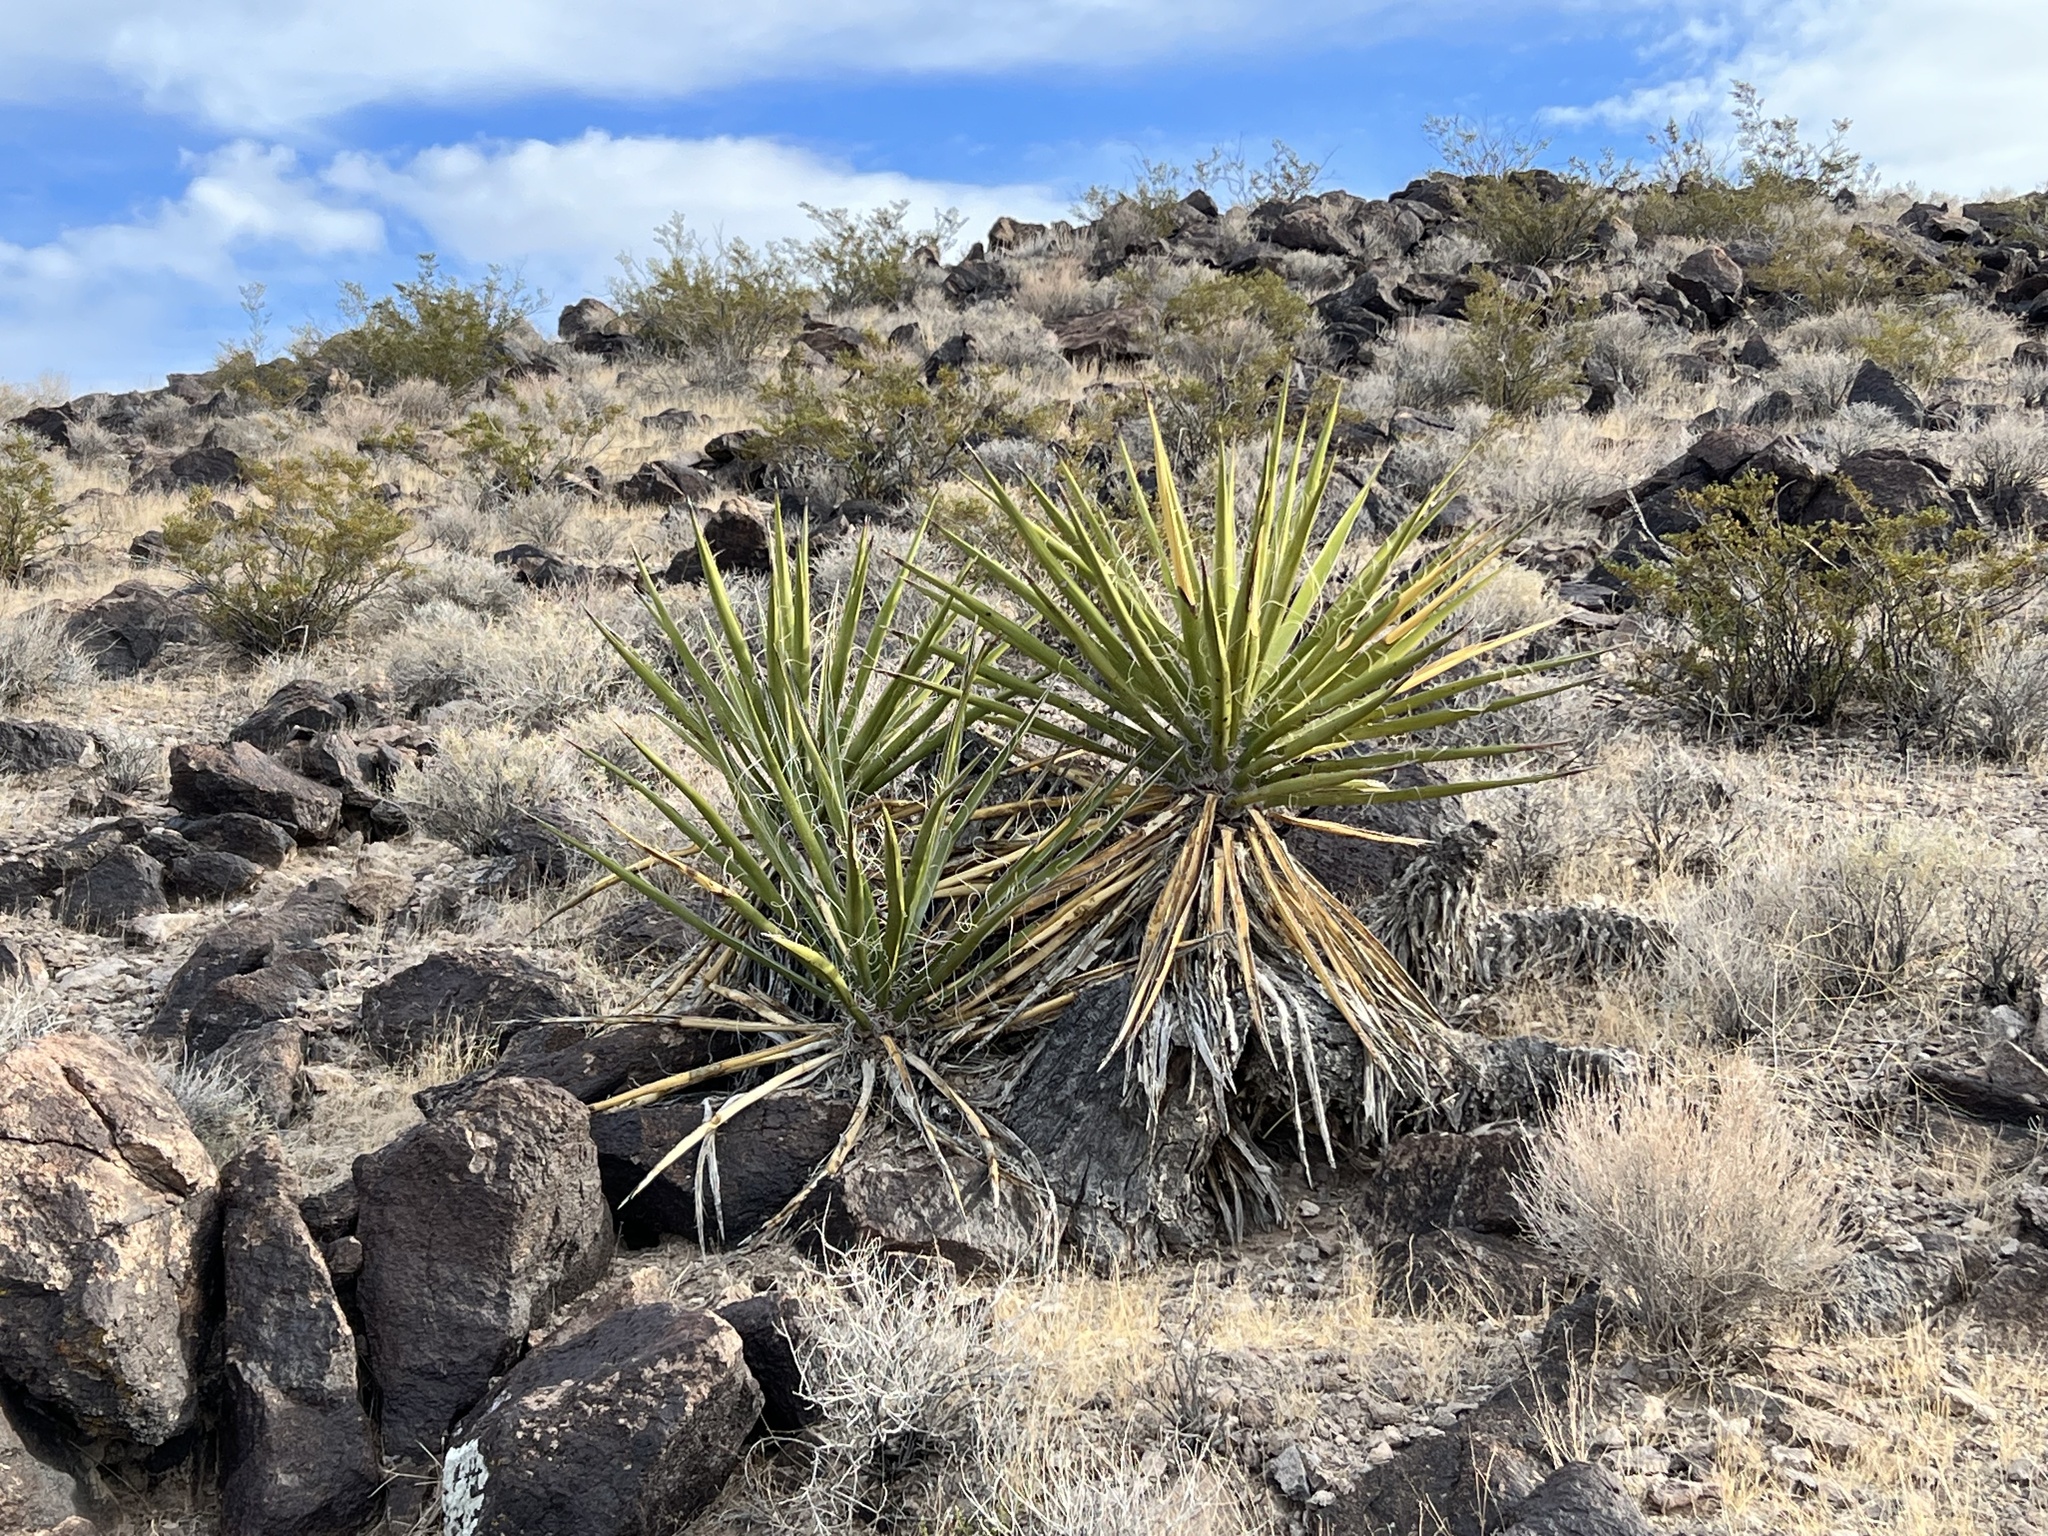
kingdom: Plantae
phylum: Tracheophyta
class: Liliopsida
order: Asparagales
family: Asparagaceae
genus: Yucca
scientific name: Yucca schidigera
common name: Mojave yucca
